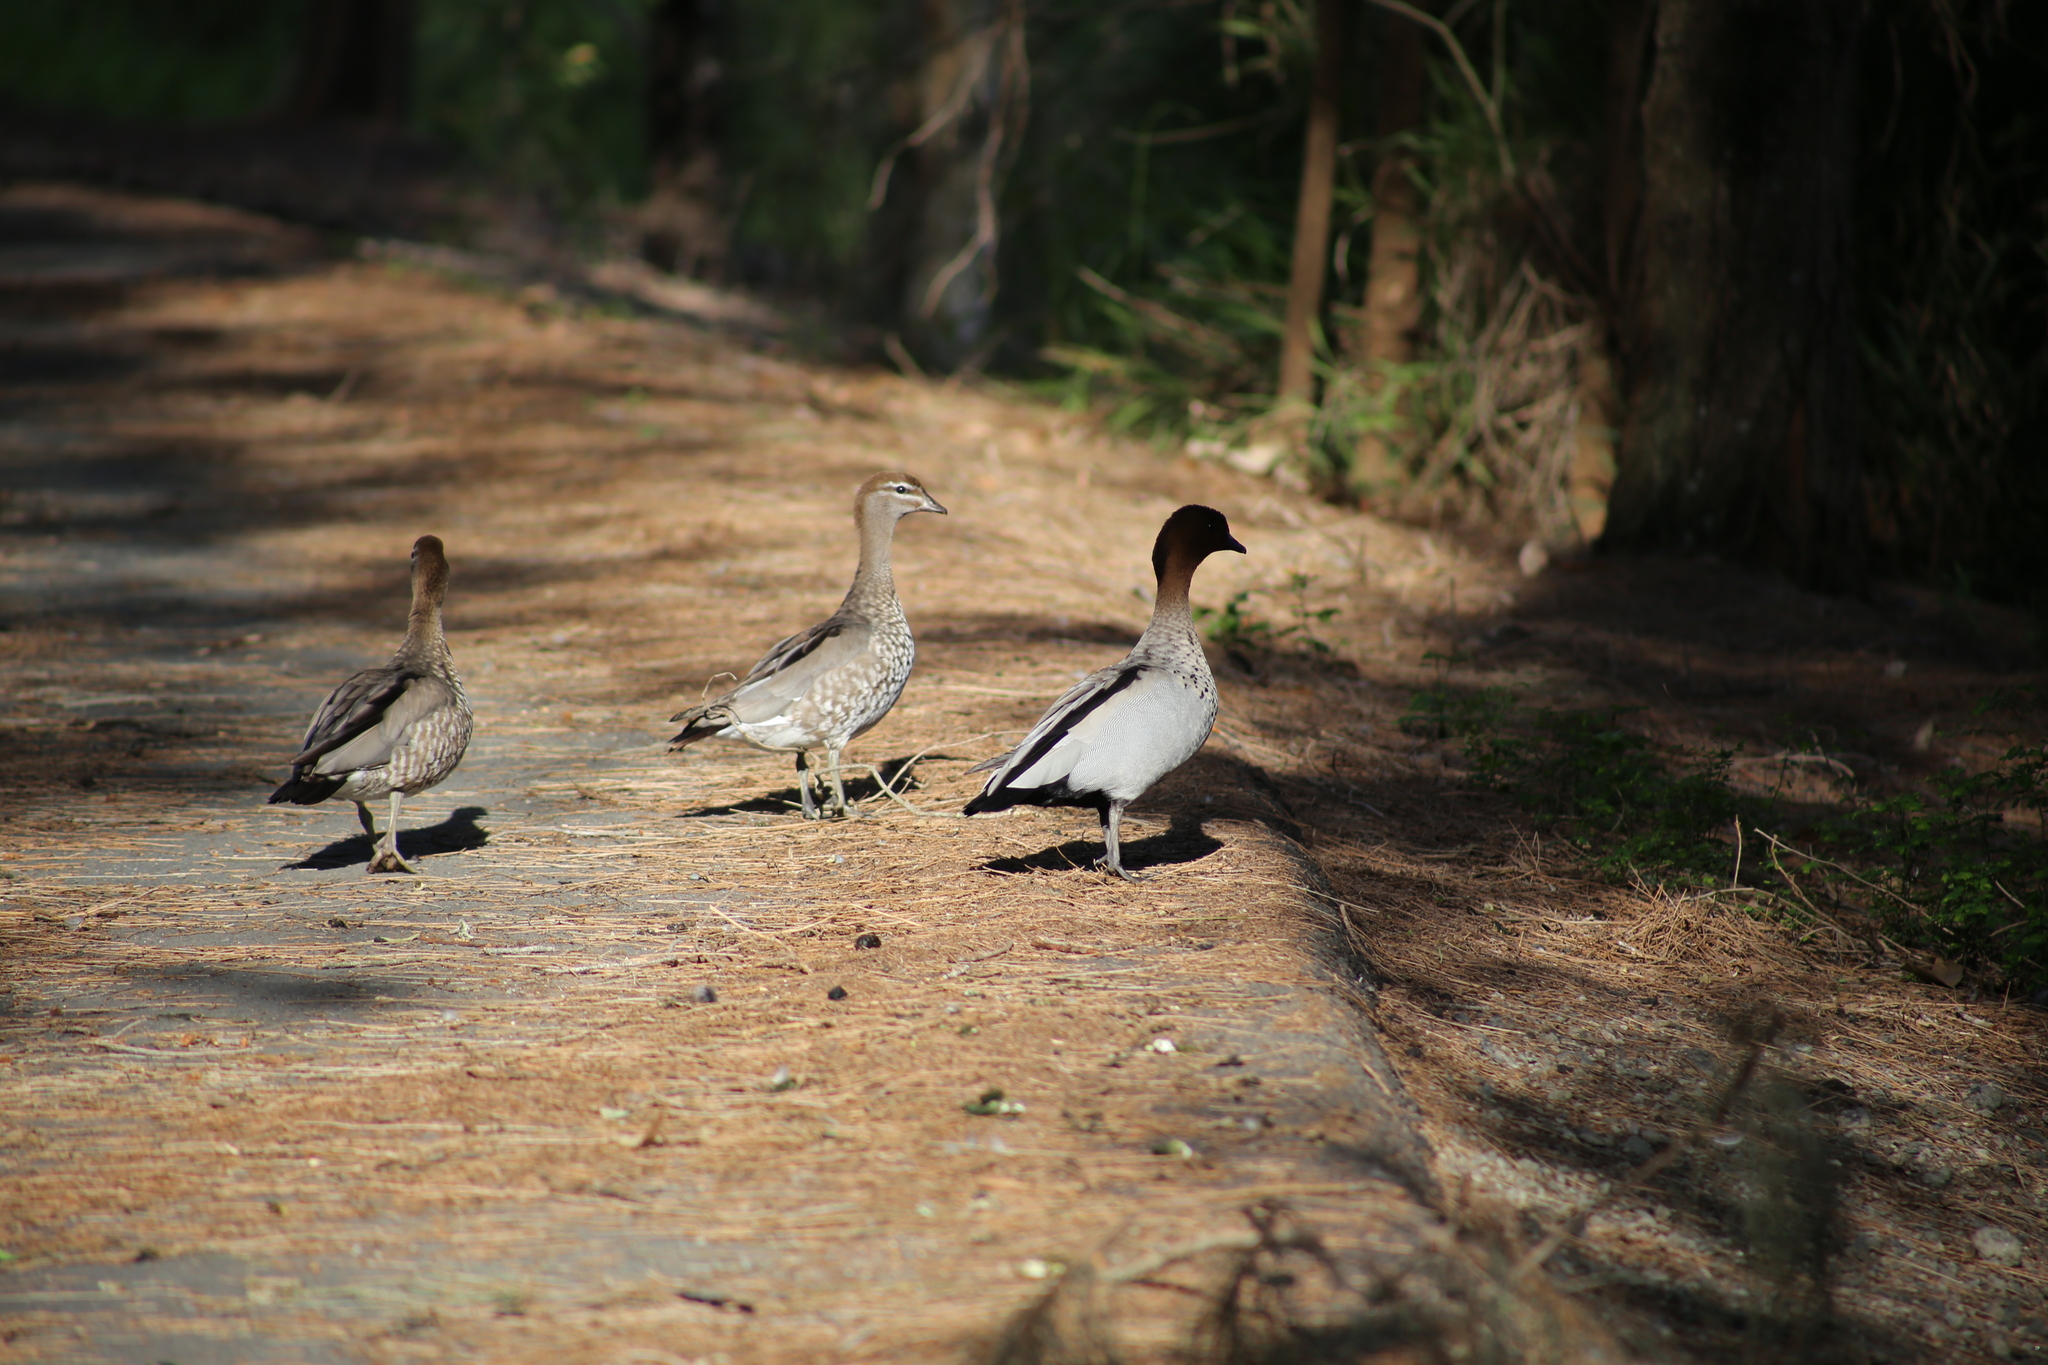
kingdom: Animalia
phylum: Chordata
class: Aves
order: Anseriformes
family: Anatidae
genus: Chenonetta
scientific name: Chenonetta jubata
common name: Maned duck
